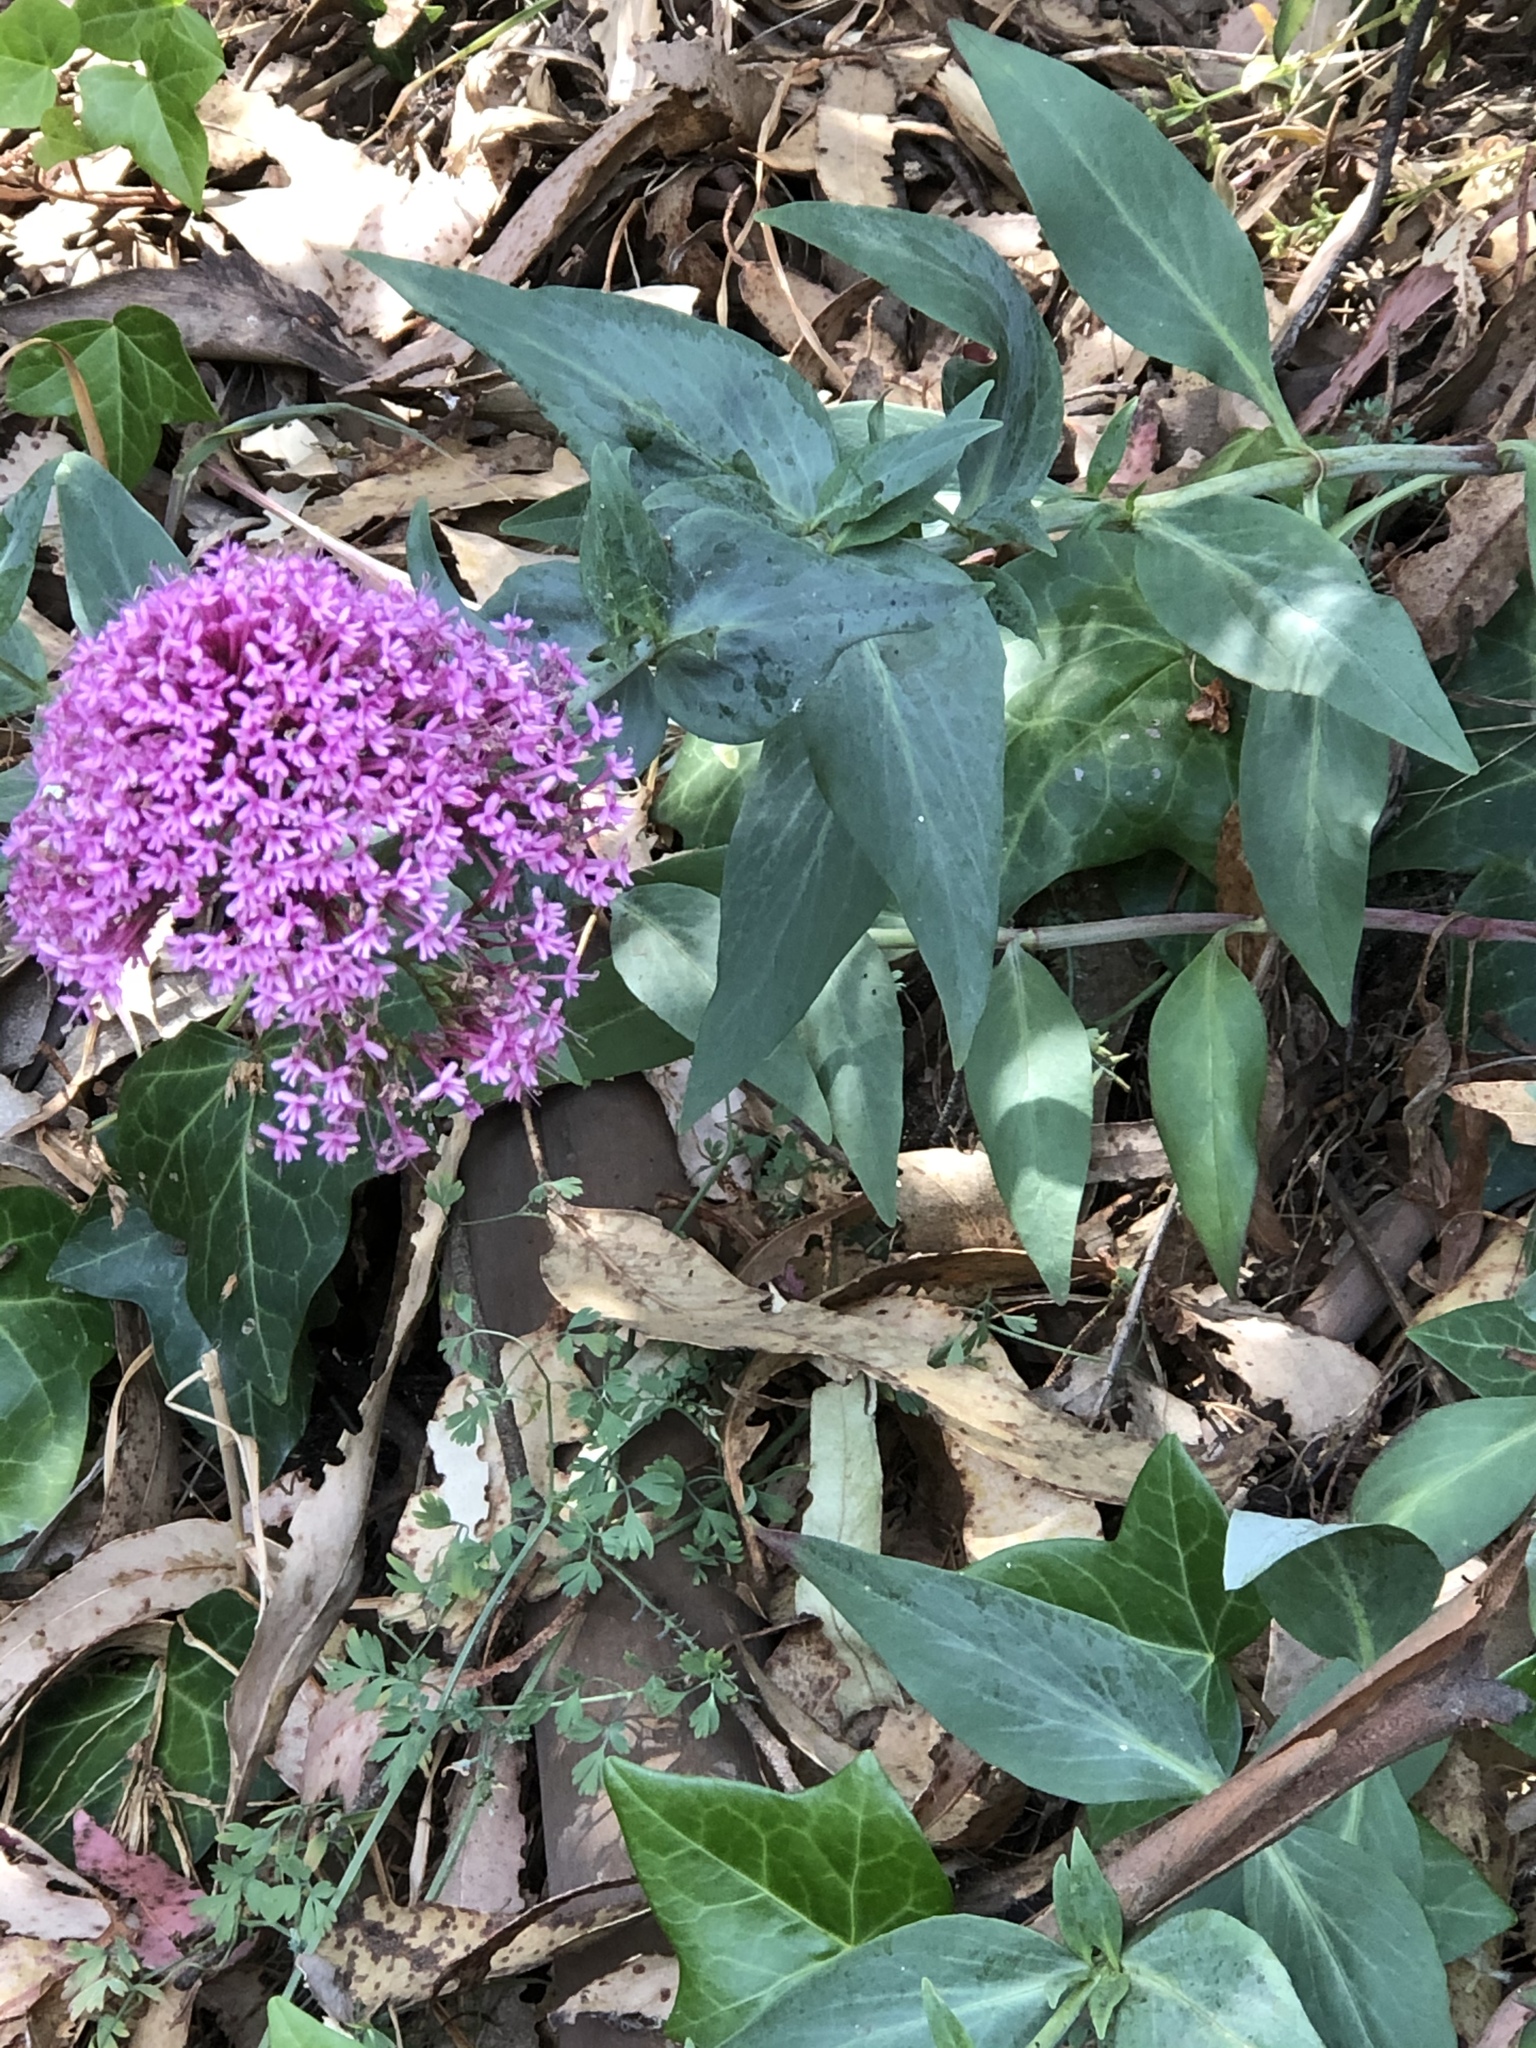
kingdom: Plantae
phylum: Tracheophyta
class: Magnoliopsida
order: Dipsacales
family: Caprifoliaceae
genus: Centranthus
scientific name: Centranthus ruber
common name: Red valerian
